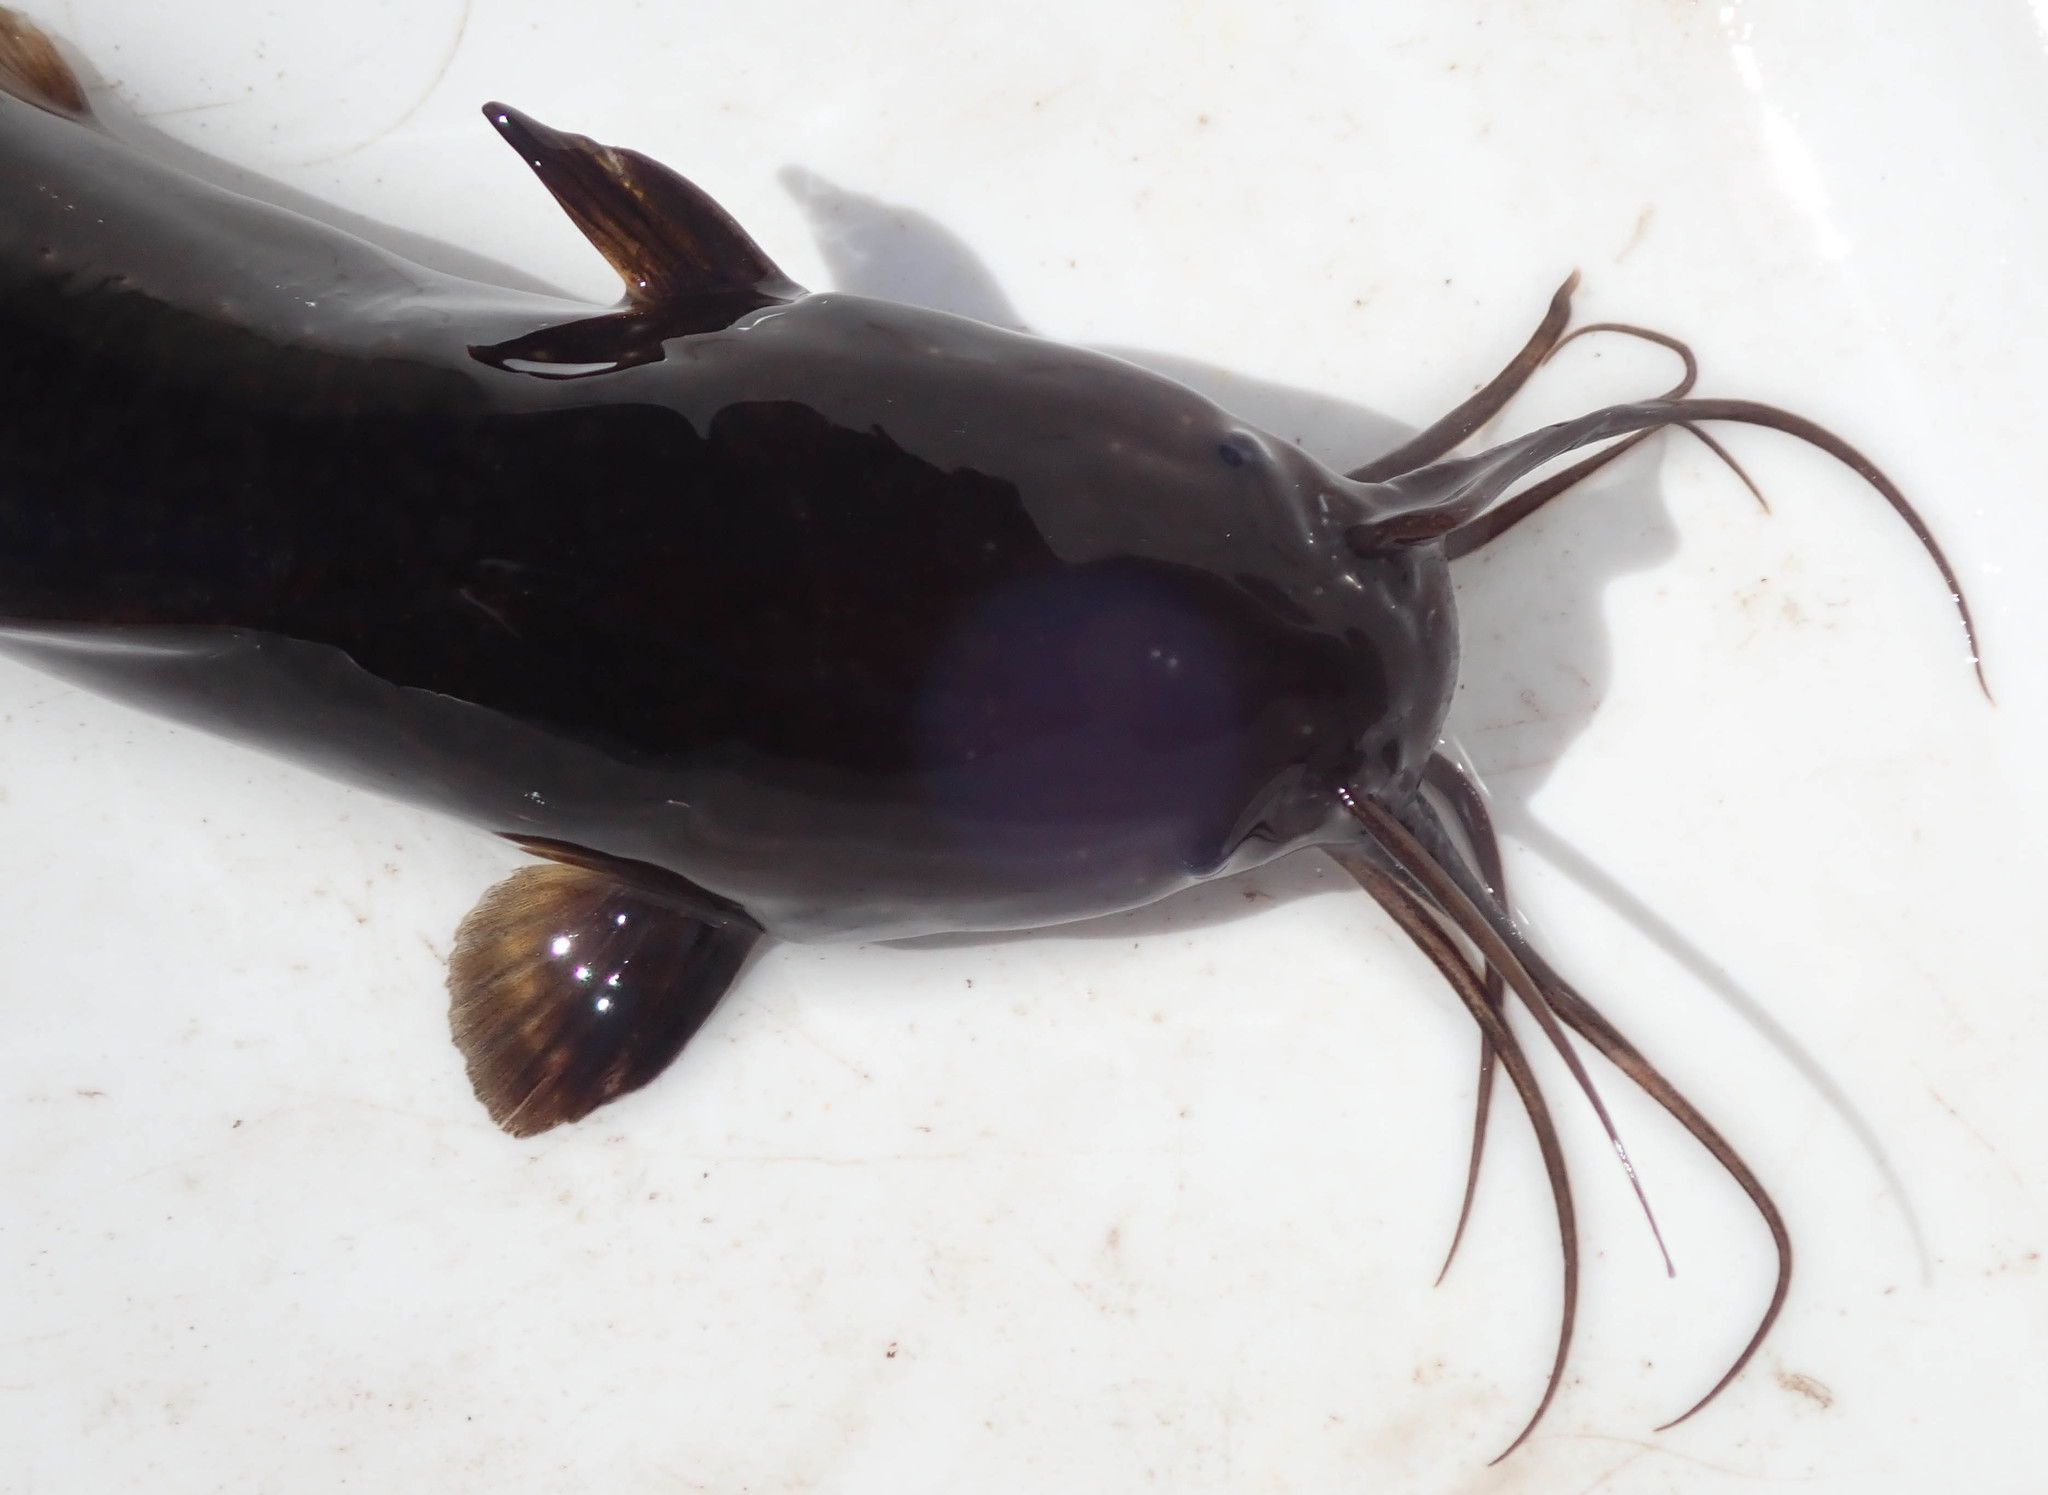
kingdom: Animalia
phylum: Chordata
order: Siluriformes
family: Clariidae
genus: Clarias
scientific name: Clarias theodorae
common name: Snake catfish
